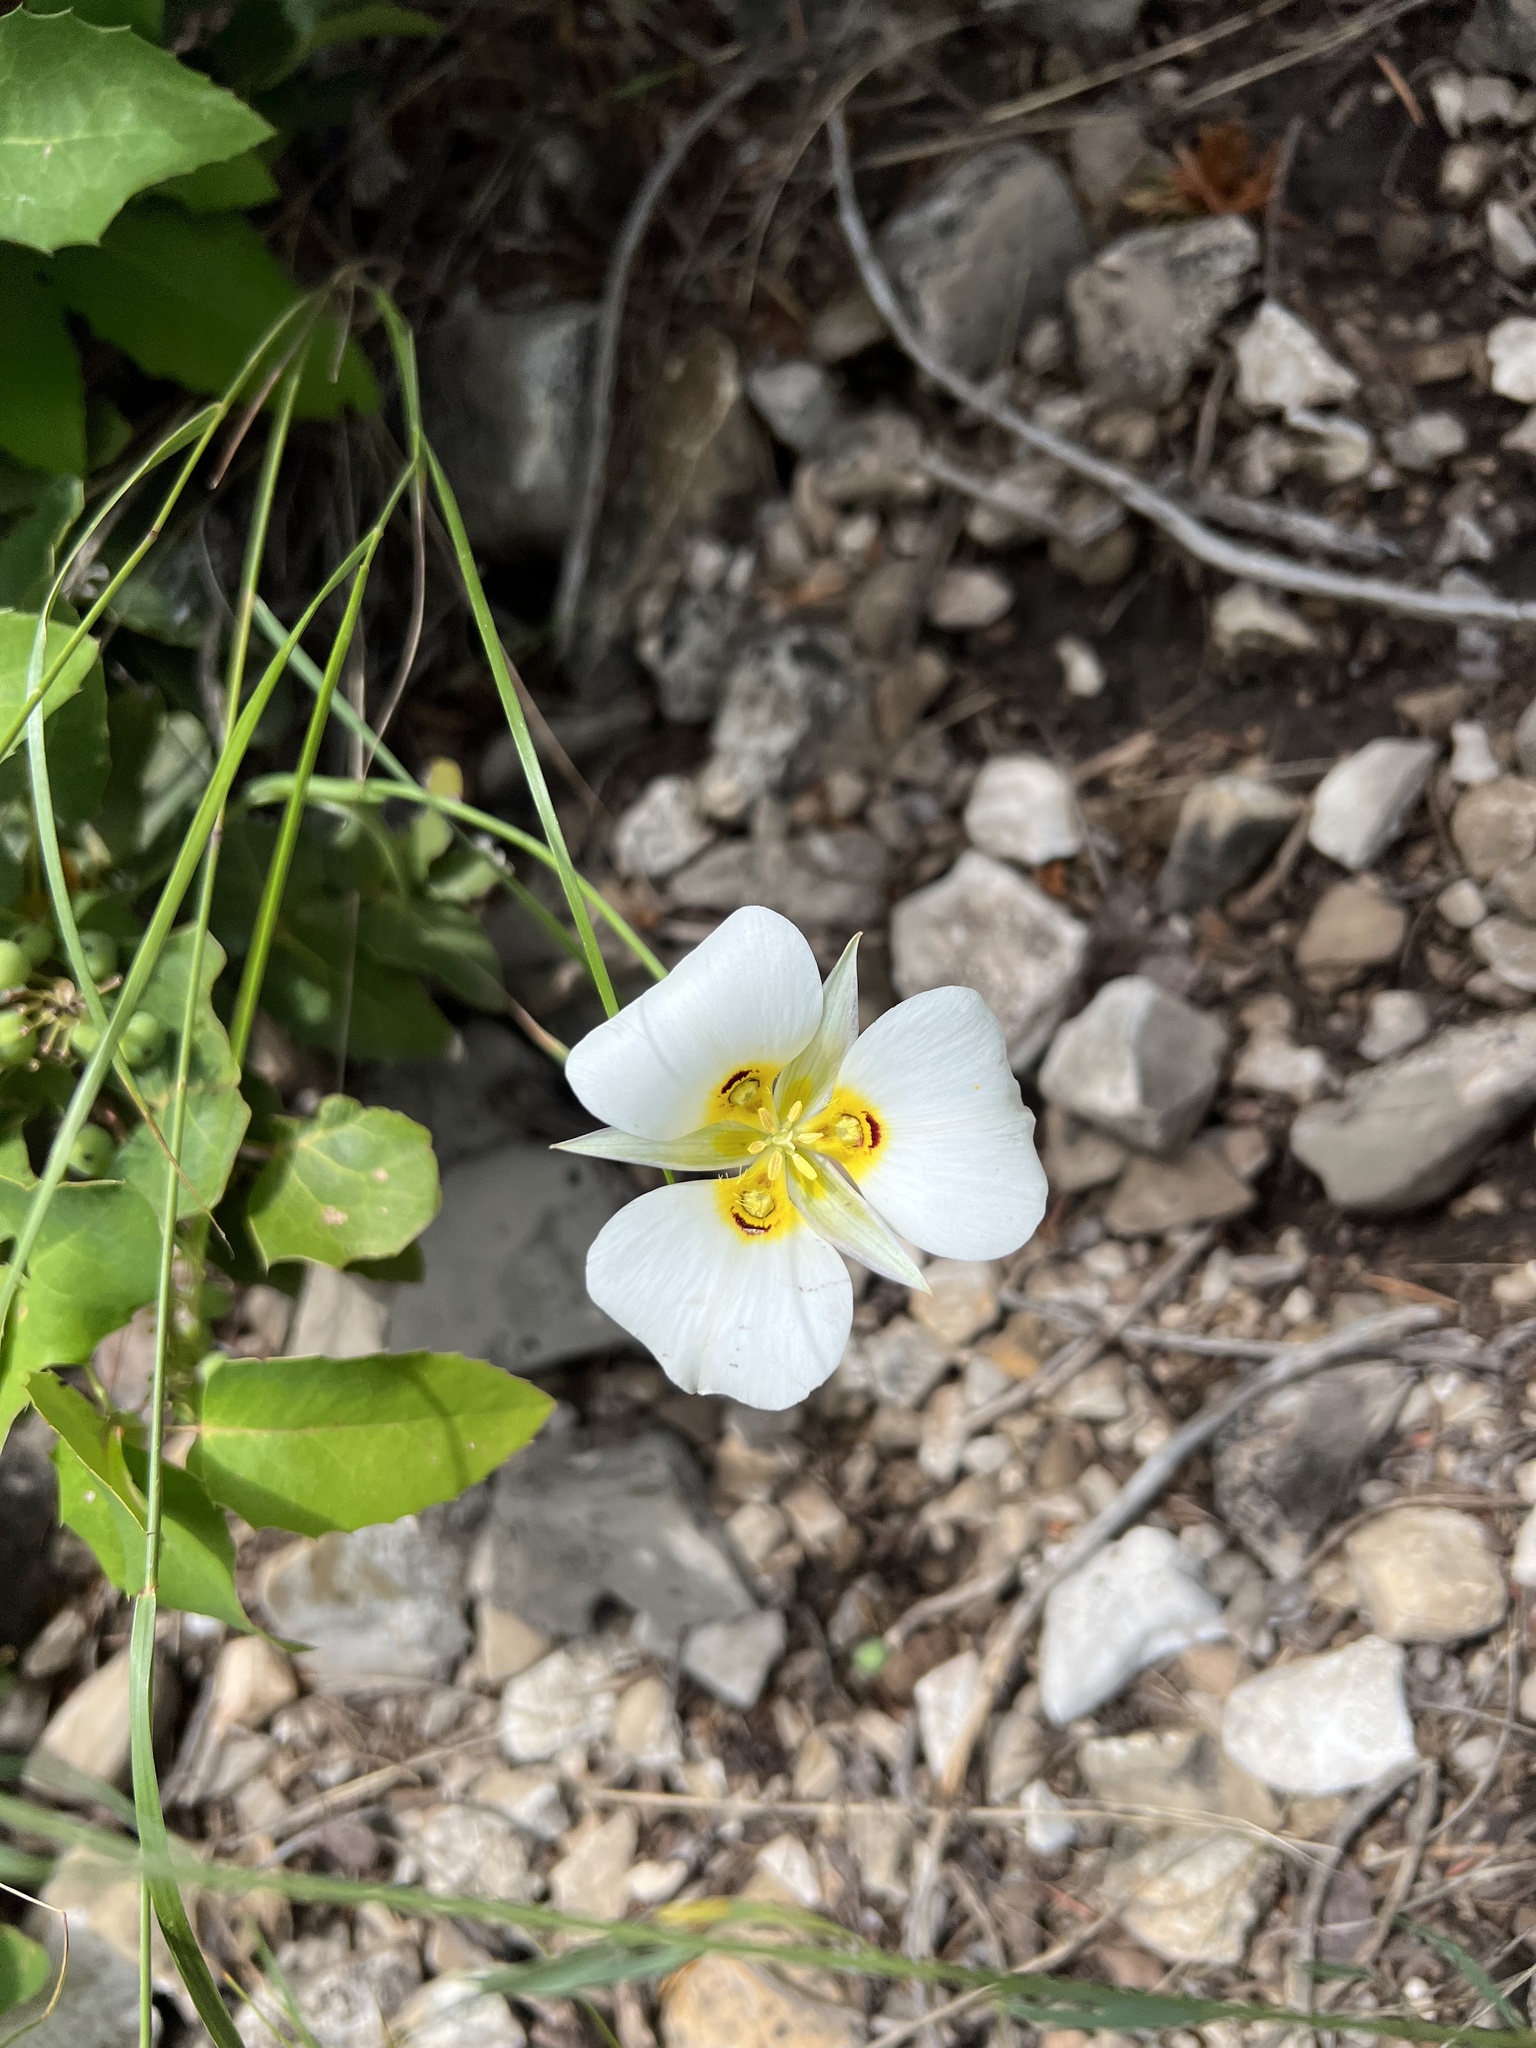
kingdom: Plantae
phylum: Tracheophyta
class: Liliopsida
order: Liliales
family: Liliaceae
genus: Calochortus
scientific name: Calochortus nuttallii
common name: Sego-lily
